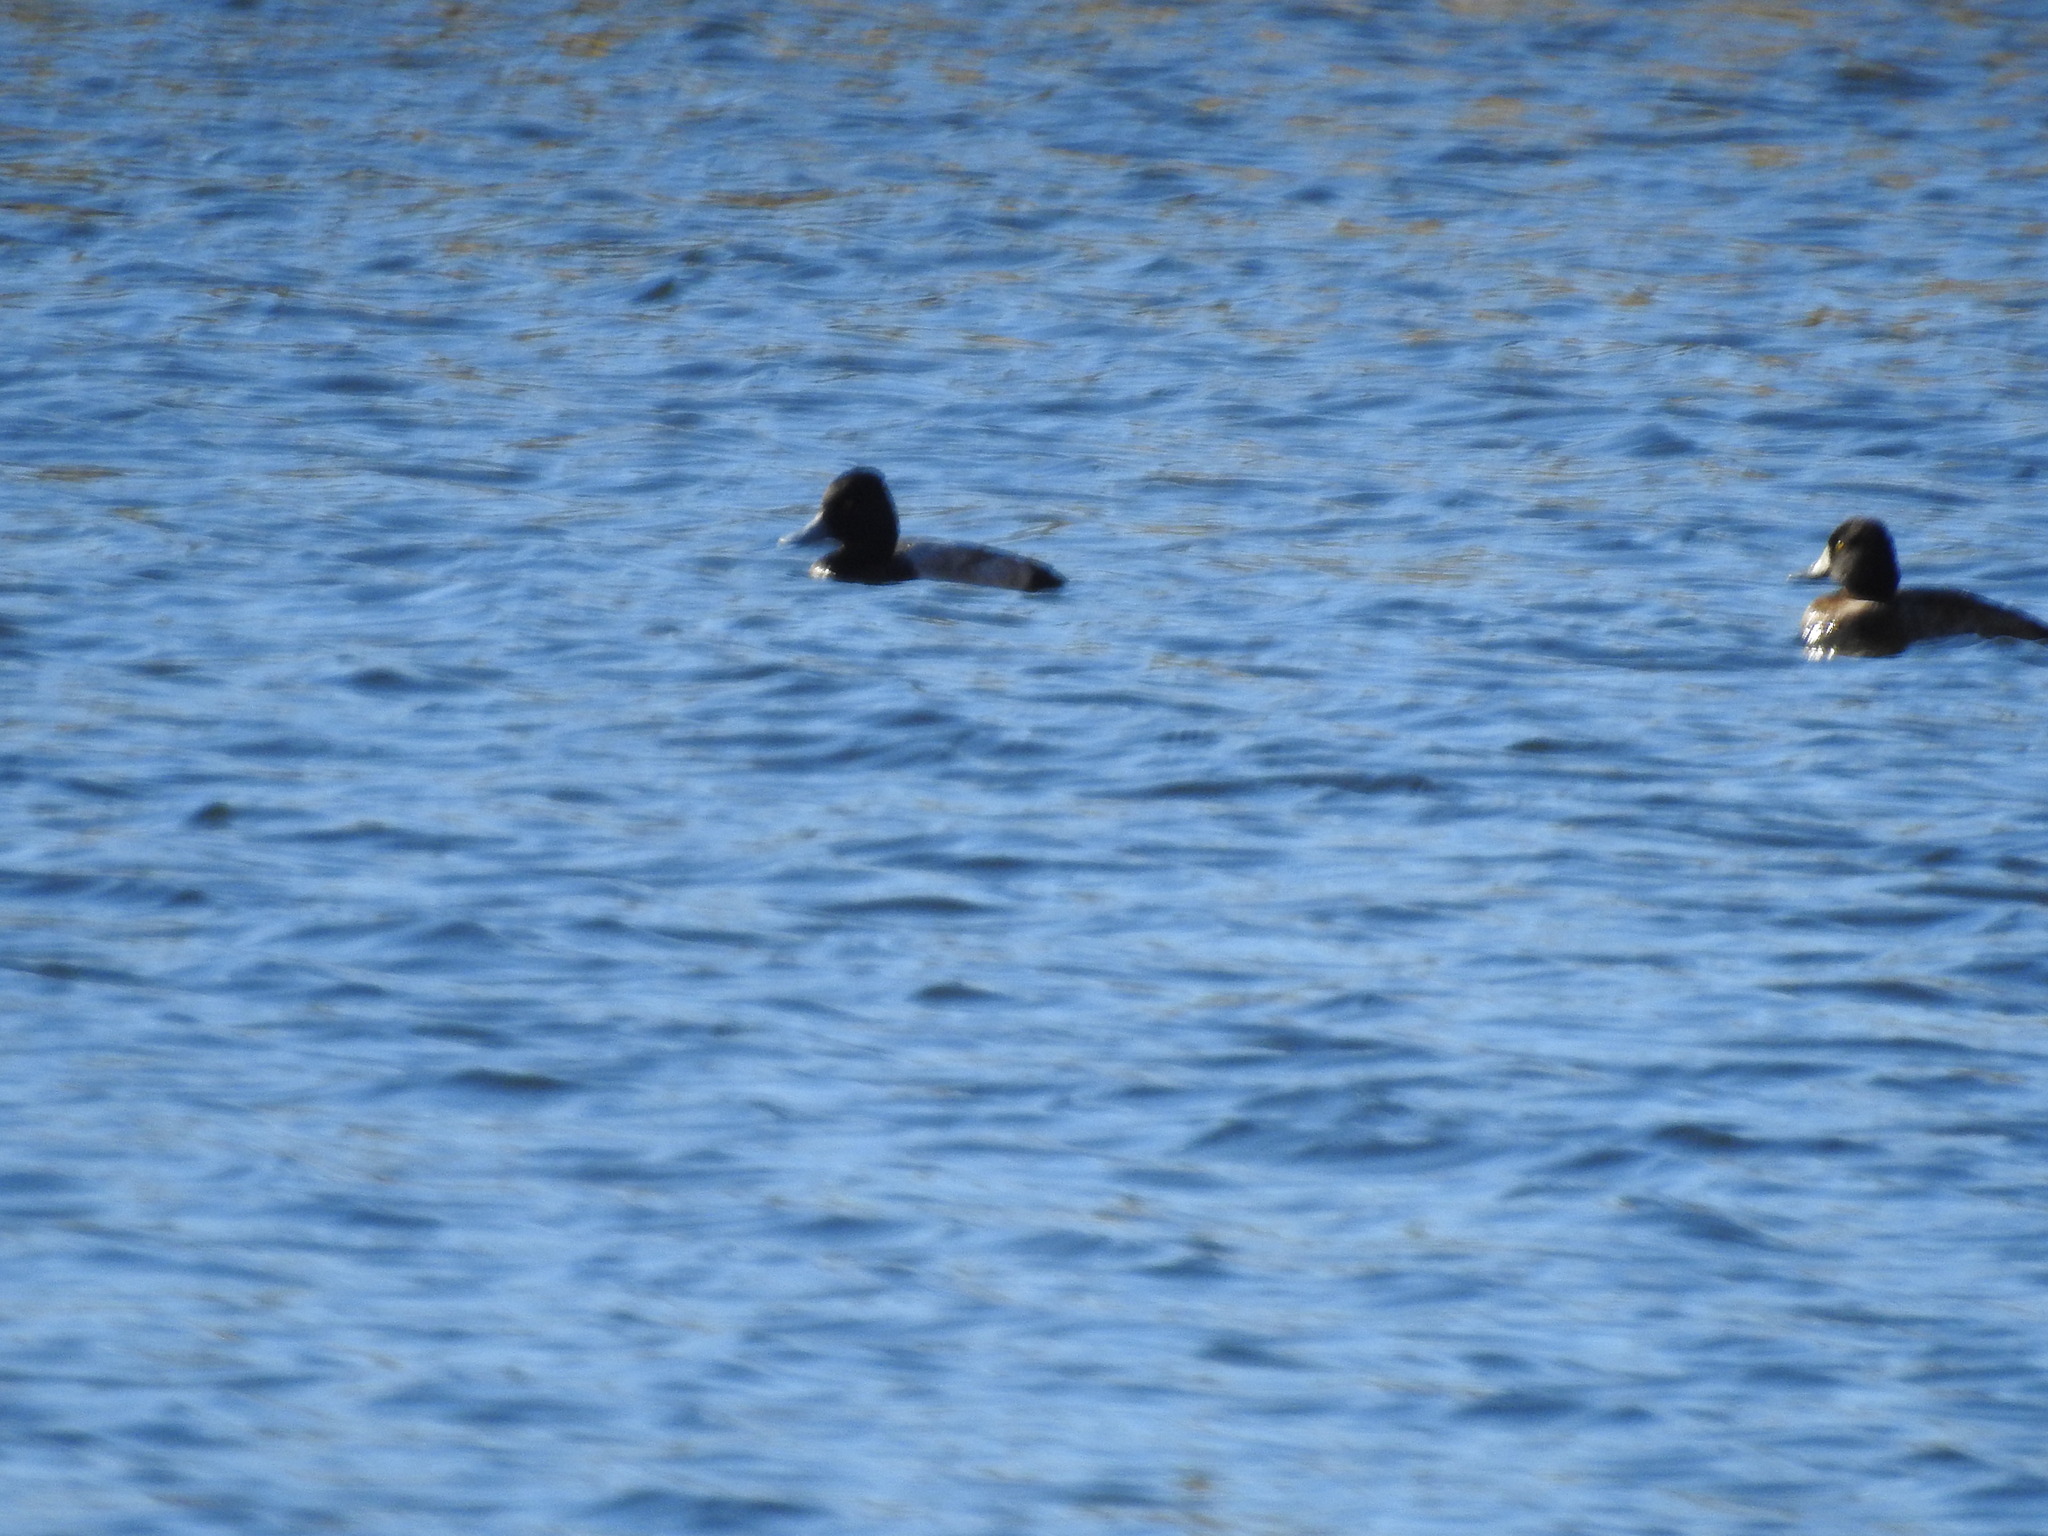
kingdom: Animalia
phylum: Chordata
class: Aves
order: Anseriformes
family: Anatidae
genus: Aythya
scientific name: Aythya affinis
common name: Lesser scaup
